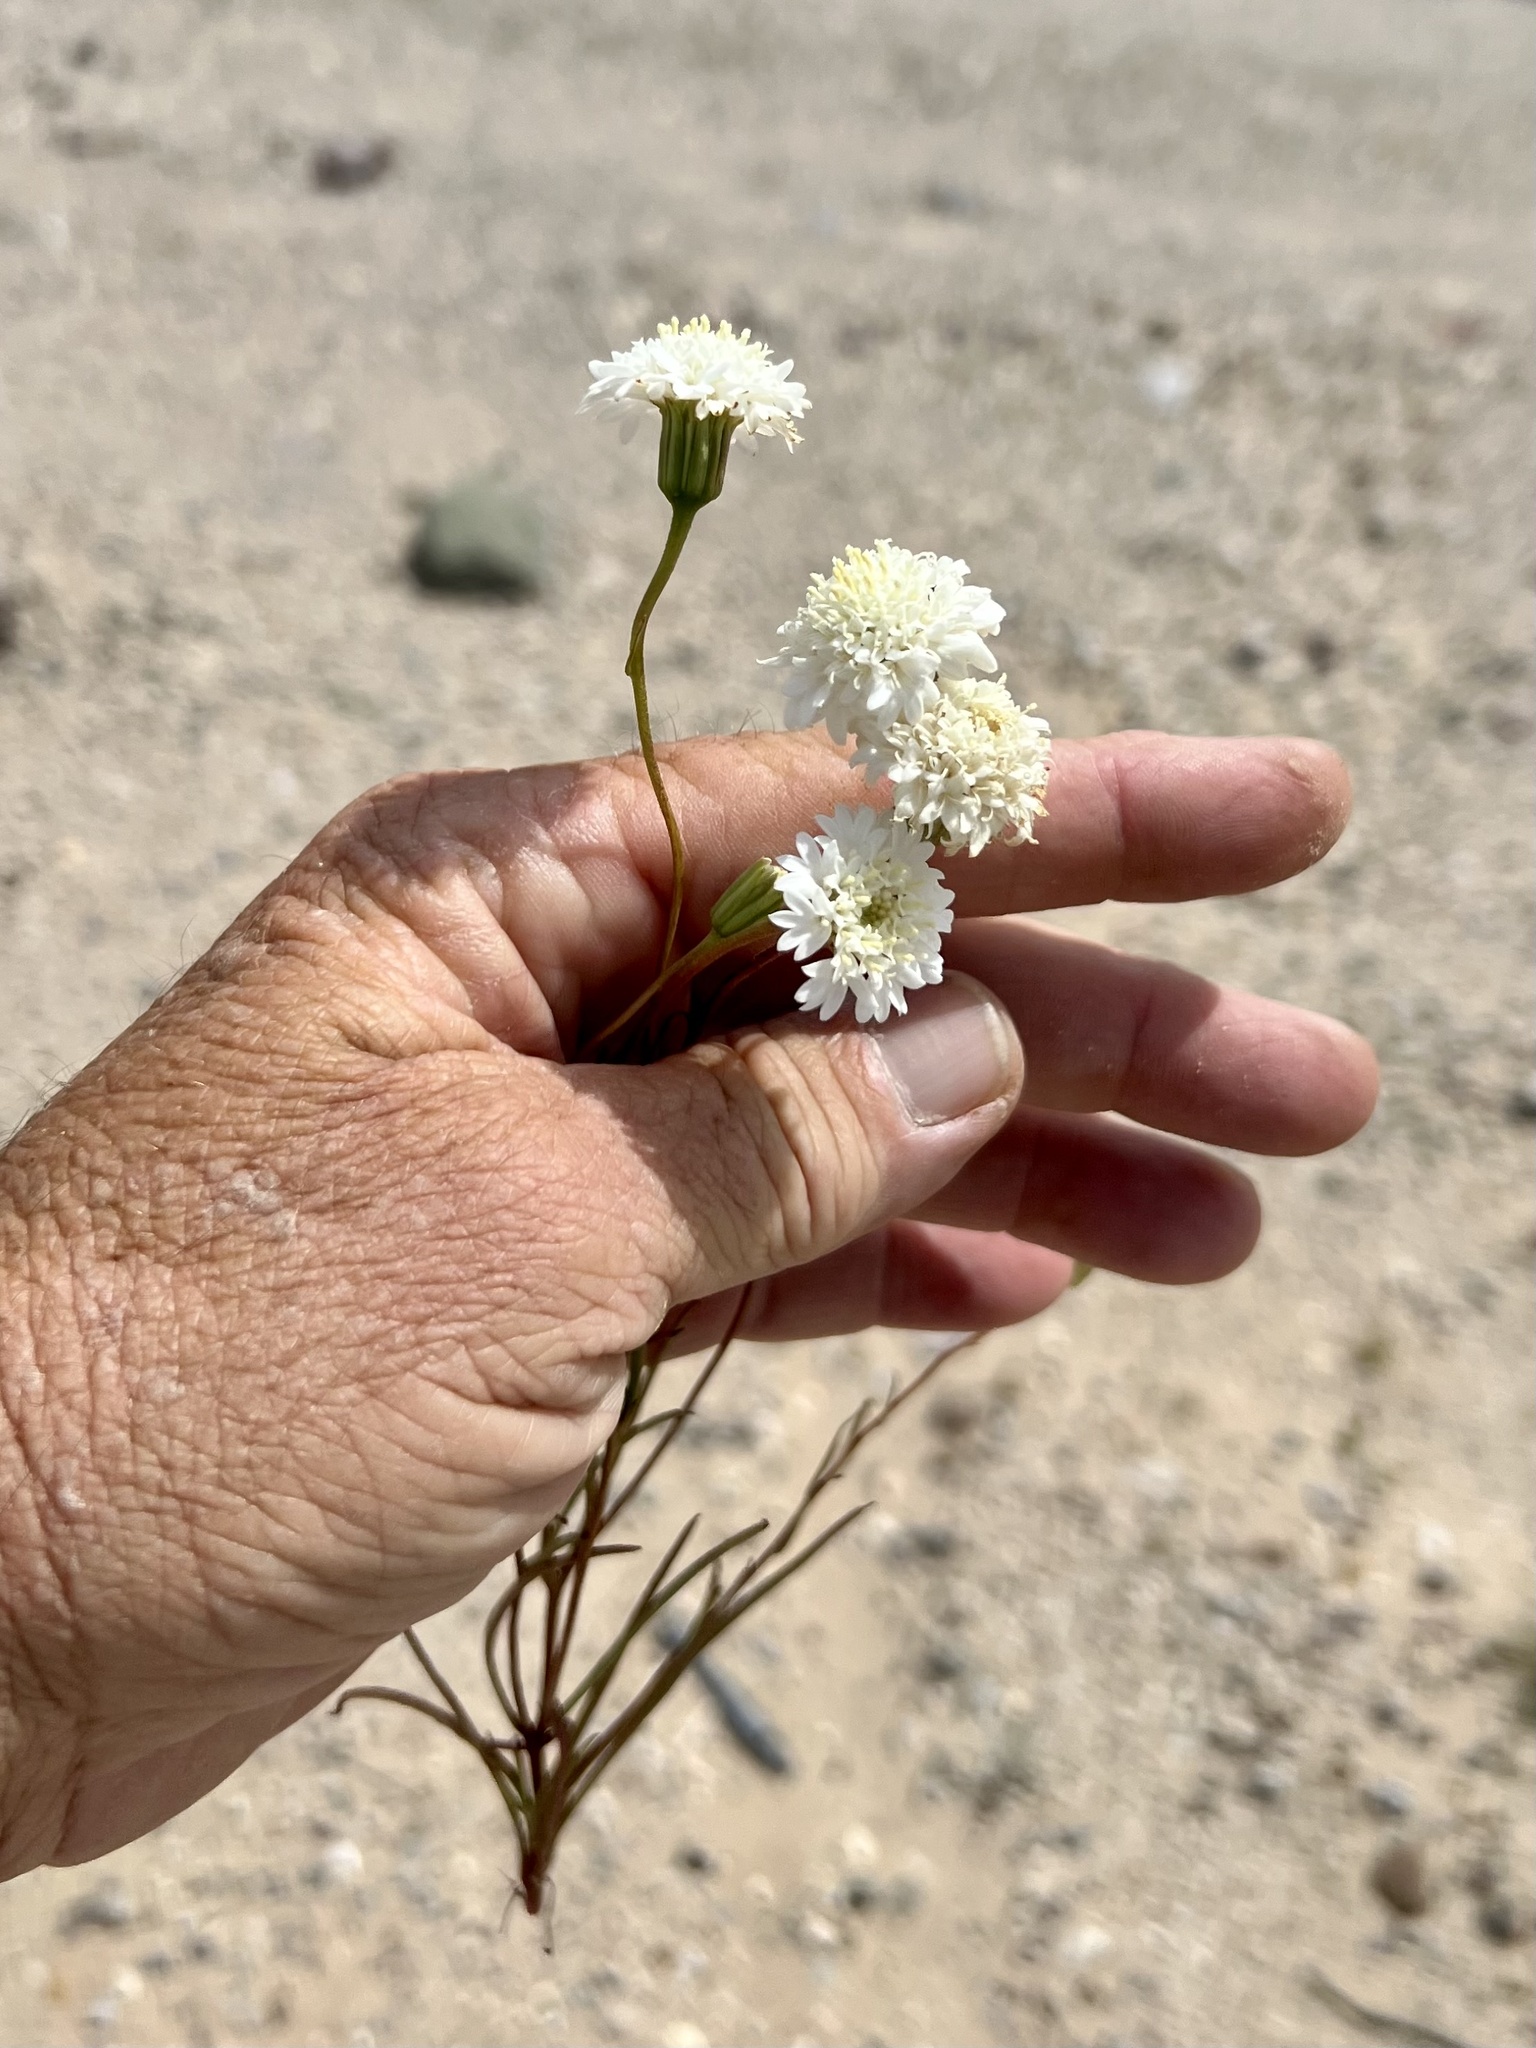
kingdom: Plantae
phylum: Tracheophyta
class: Magnoliopsida
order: Asterales
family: Asteraceae
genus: Chaenactis
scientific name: Chaenactis fremontii
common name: Fremont pincushion
